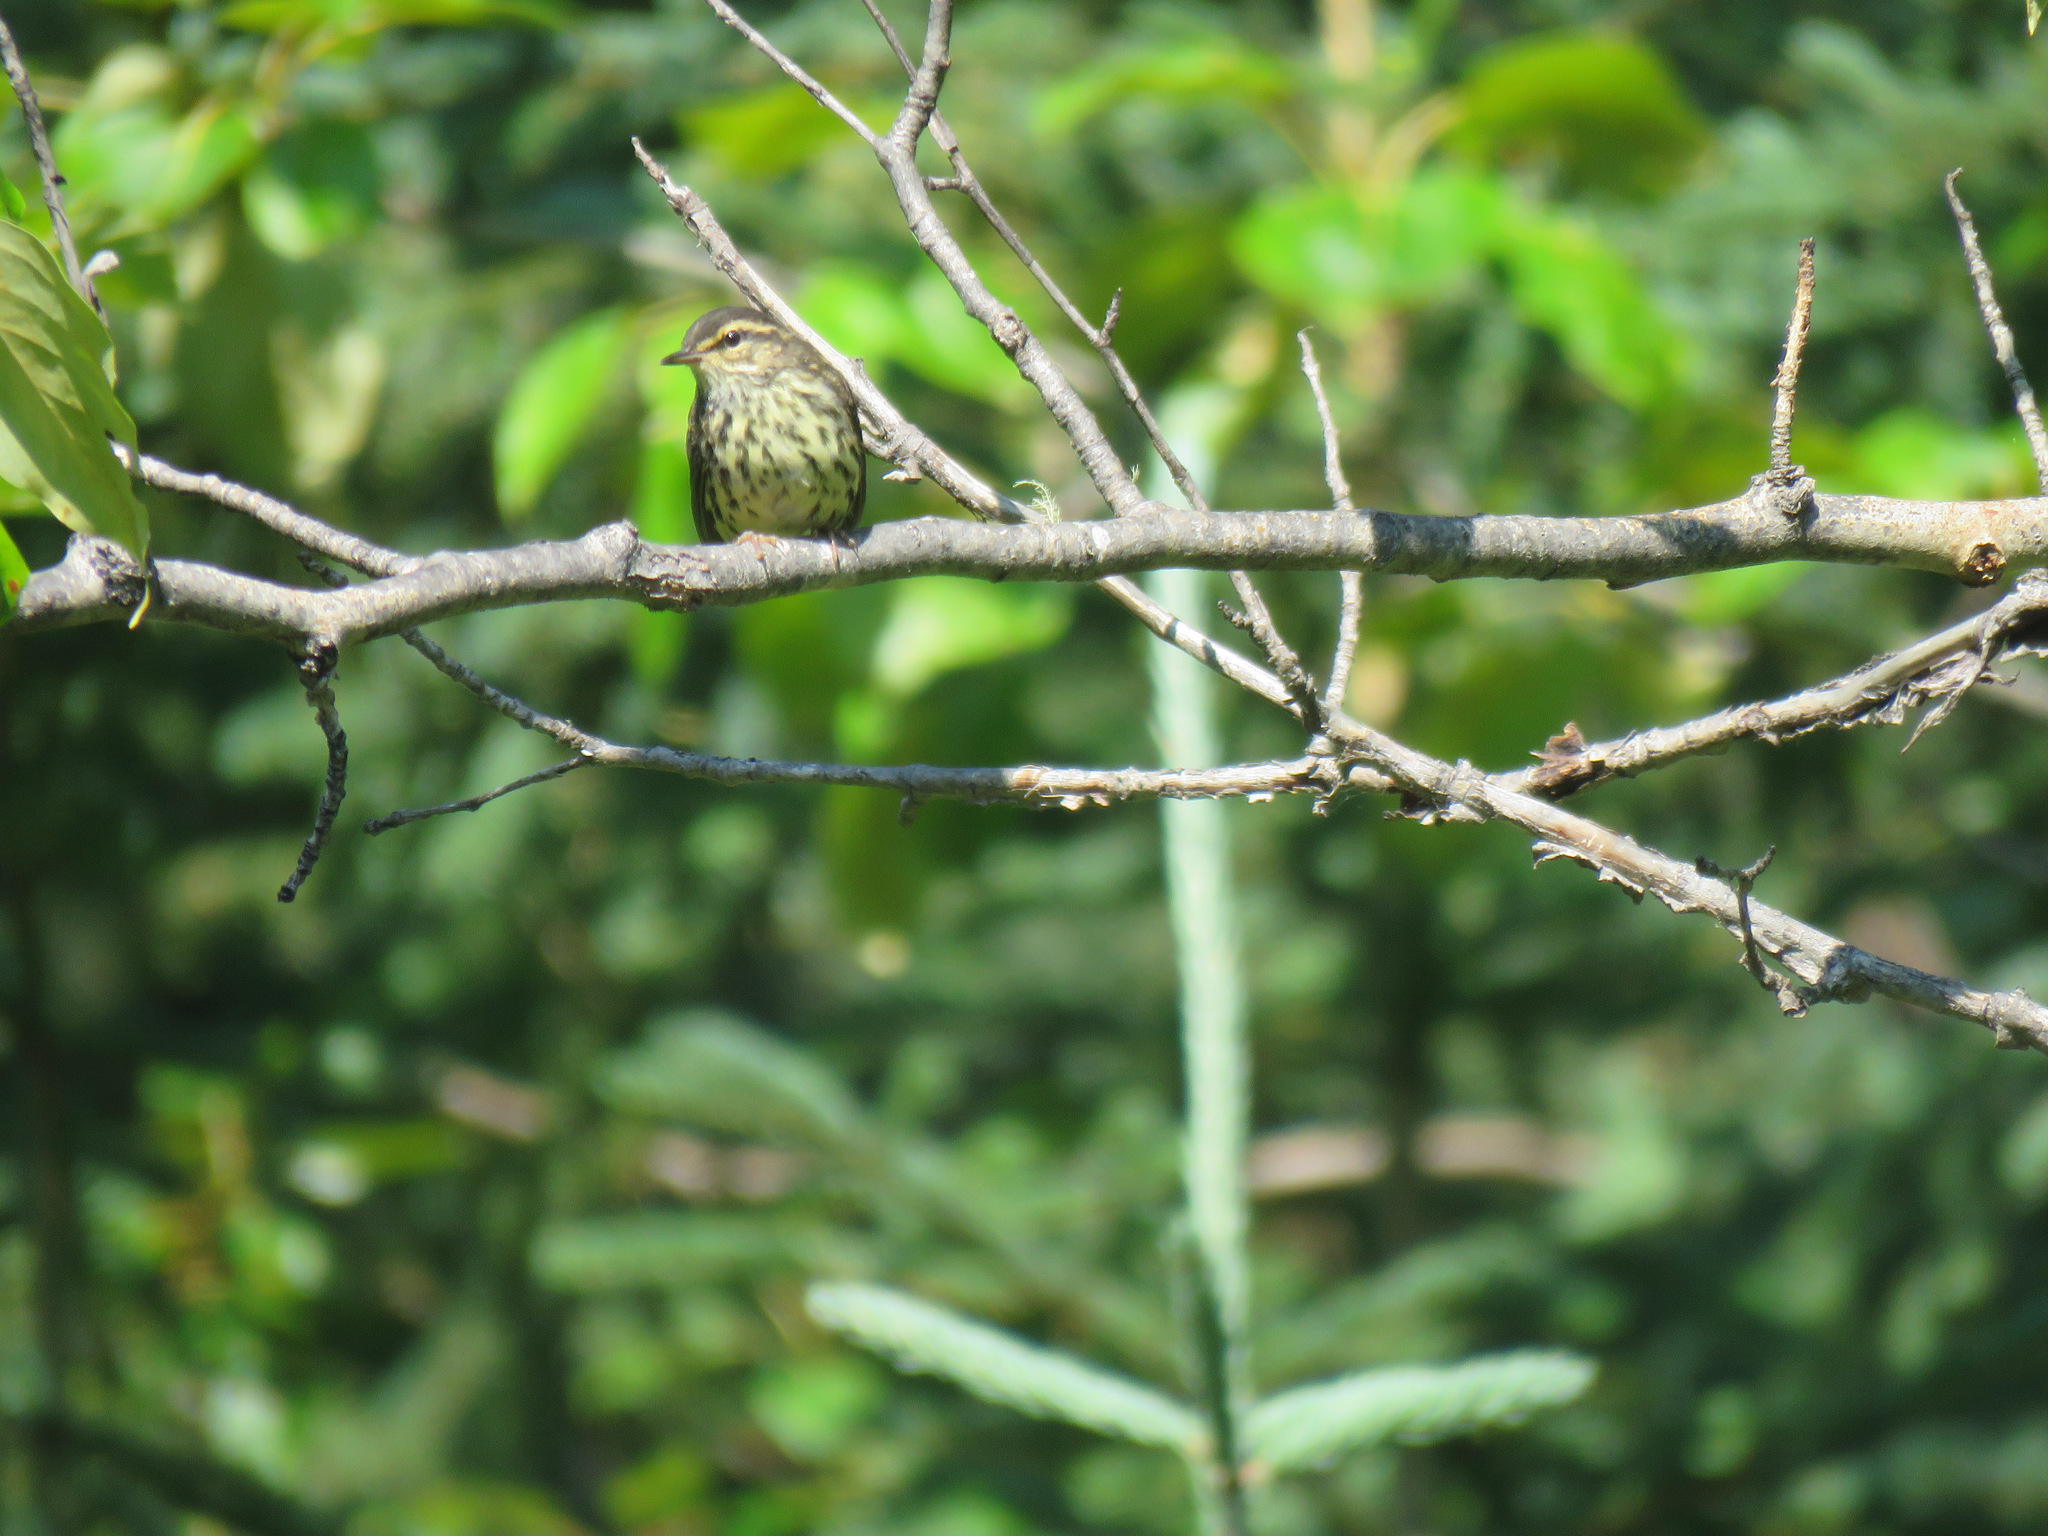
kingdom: Animalia
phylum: Chordata
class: Aves
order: Passeriformes
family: Parulidae
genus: Parkesia
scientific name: Parkesia noveboracensis
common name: Northern waterthrush
